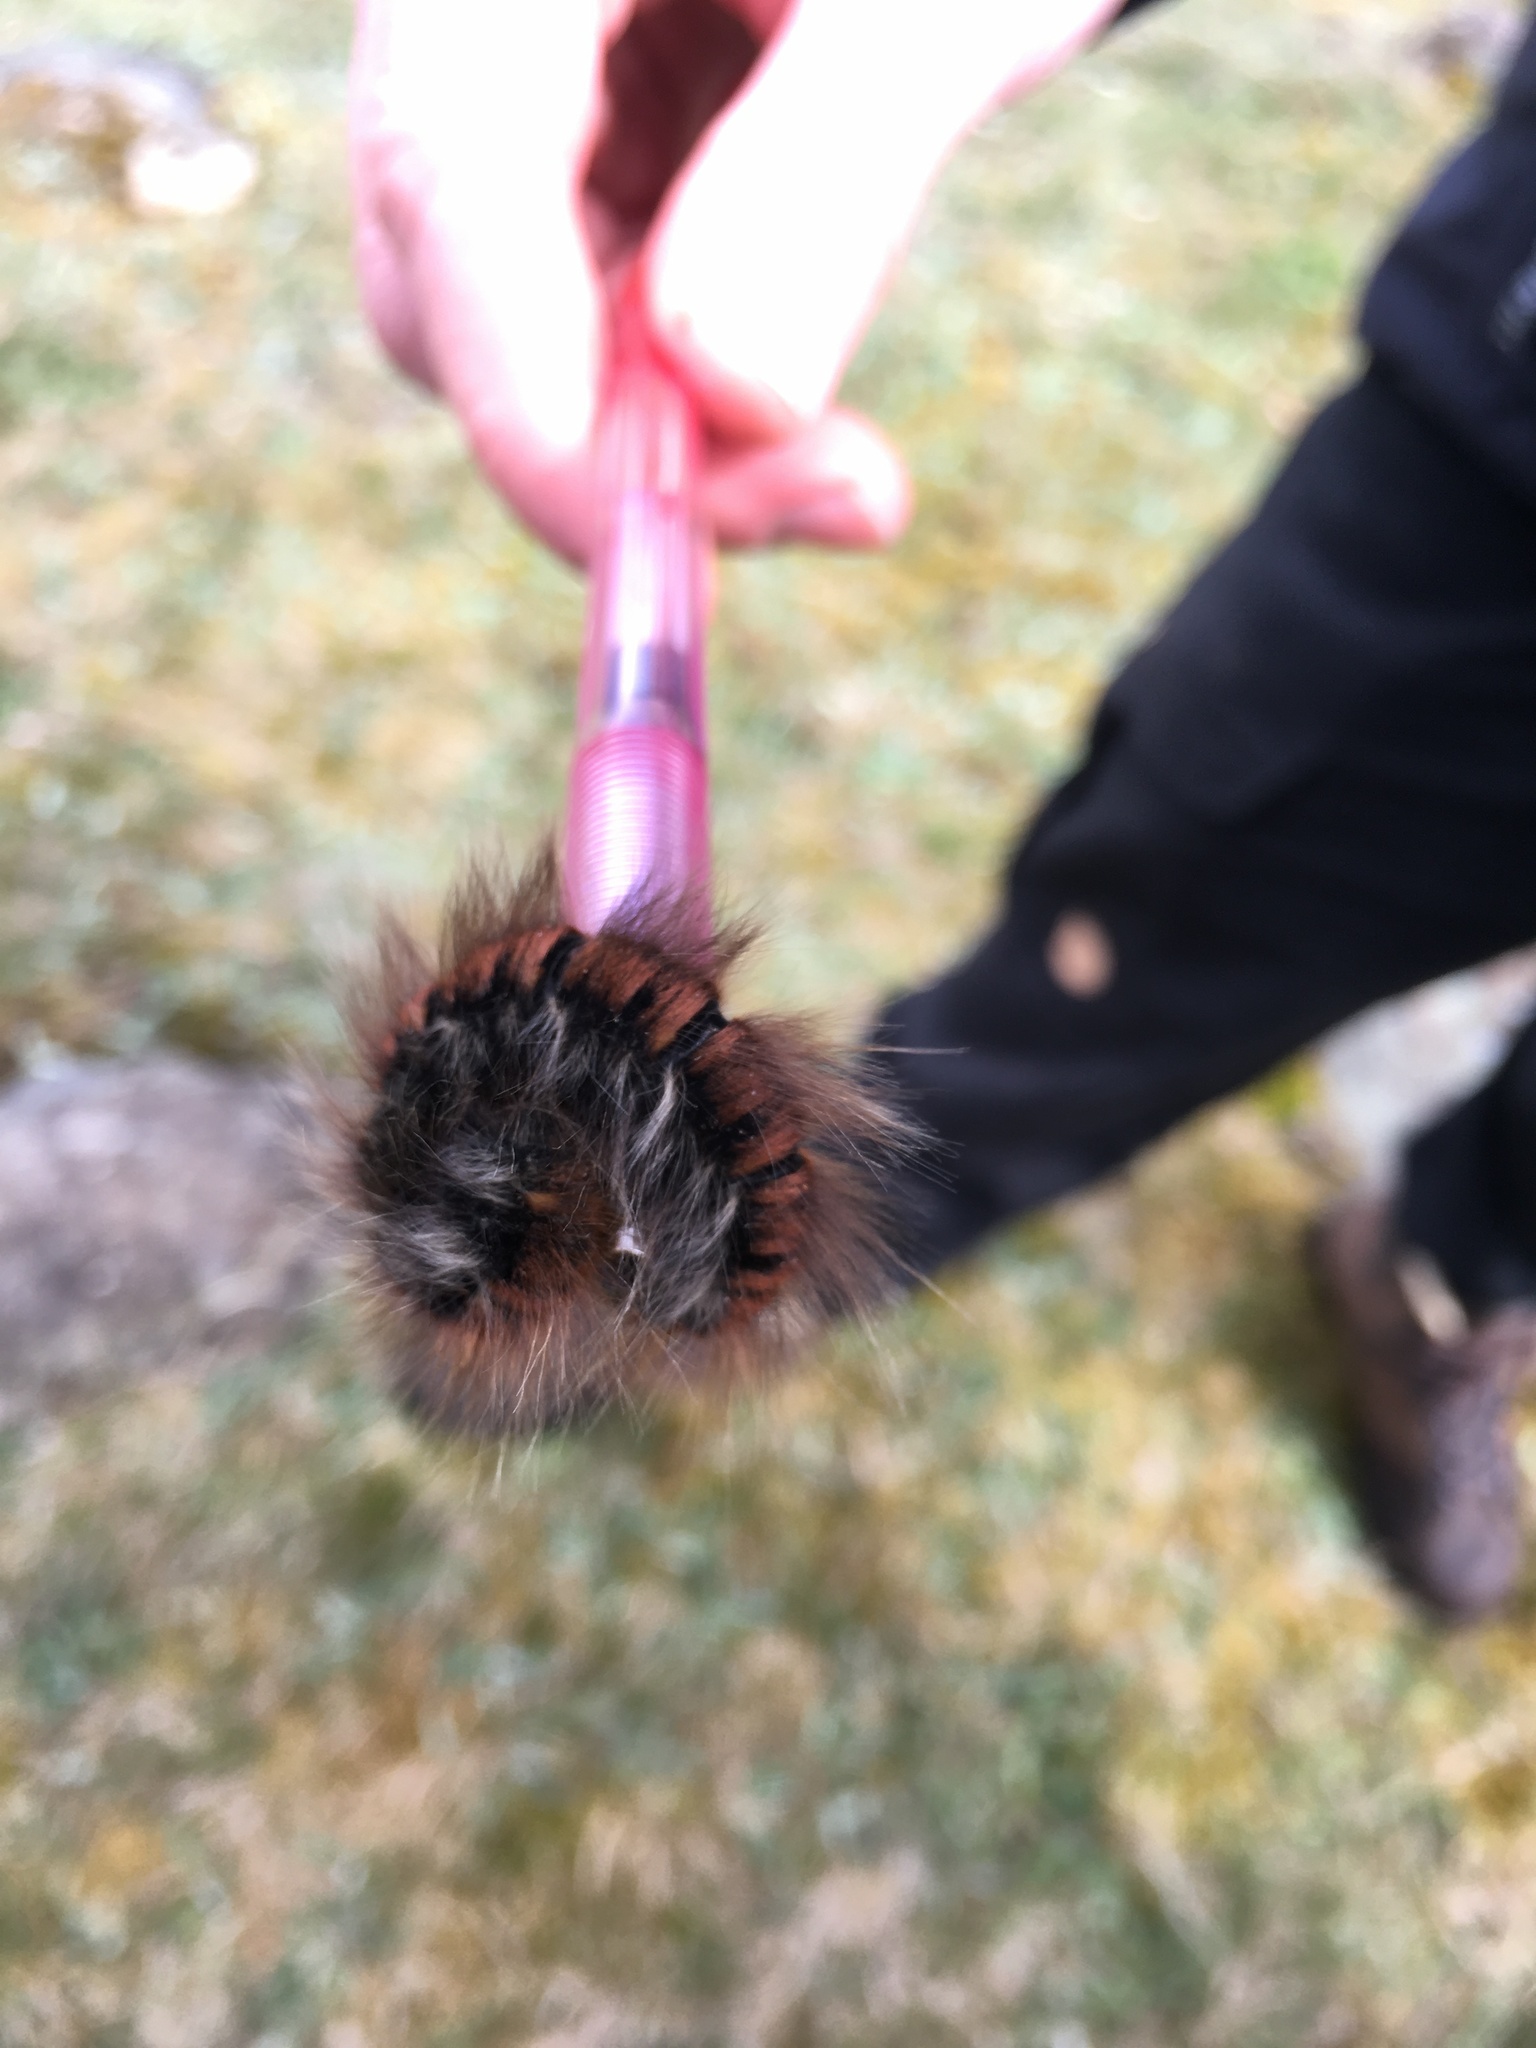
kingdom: Animalia
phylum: Arthropoda
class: Insecta
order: Lepidoptera
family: Lasiocampidae
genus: Macrothylacia
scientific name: Macrothylacia rubi
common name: Fox moth
